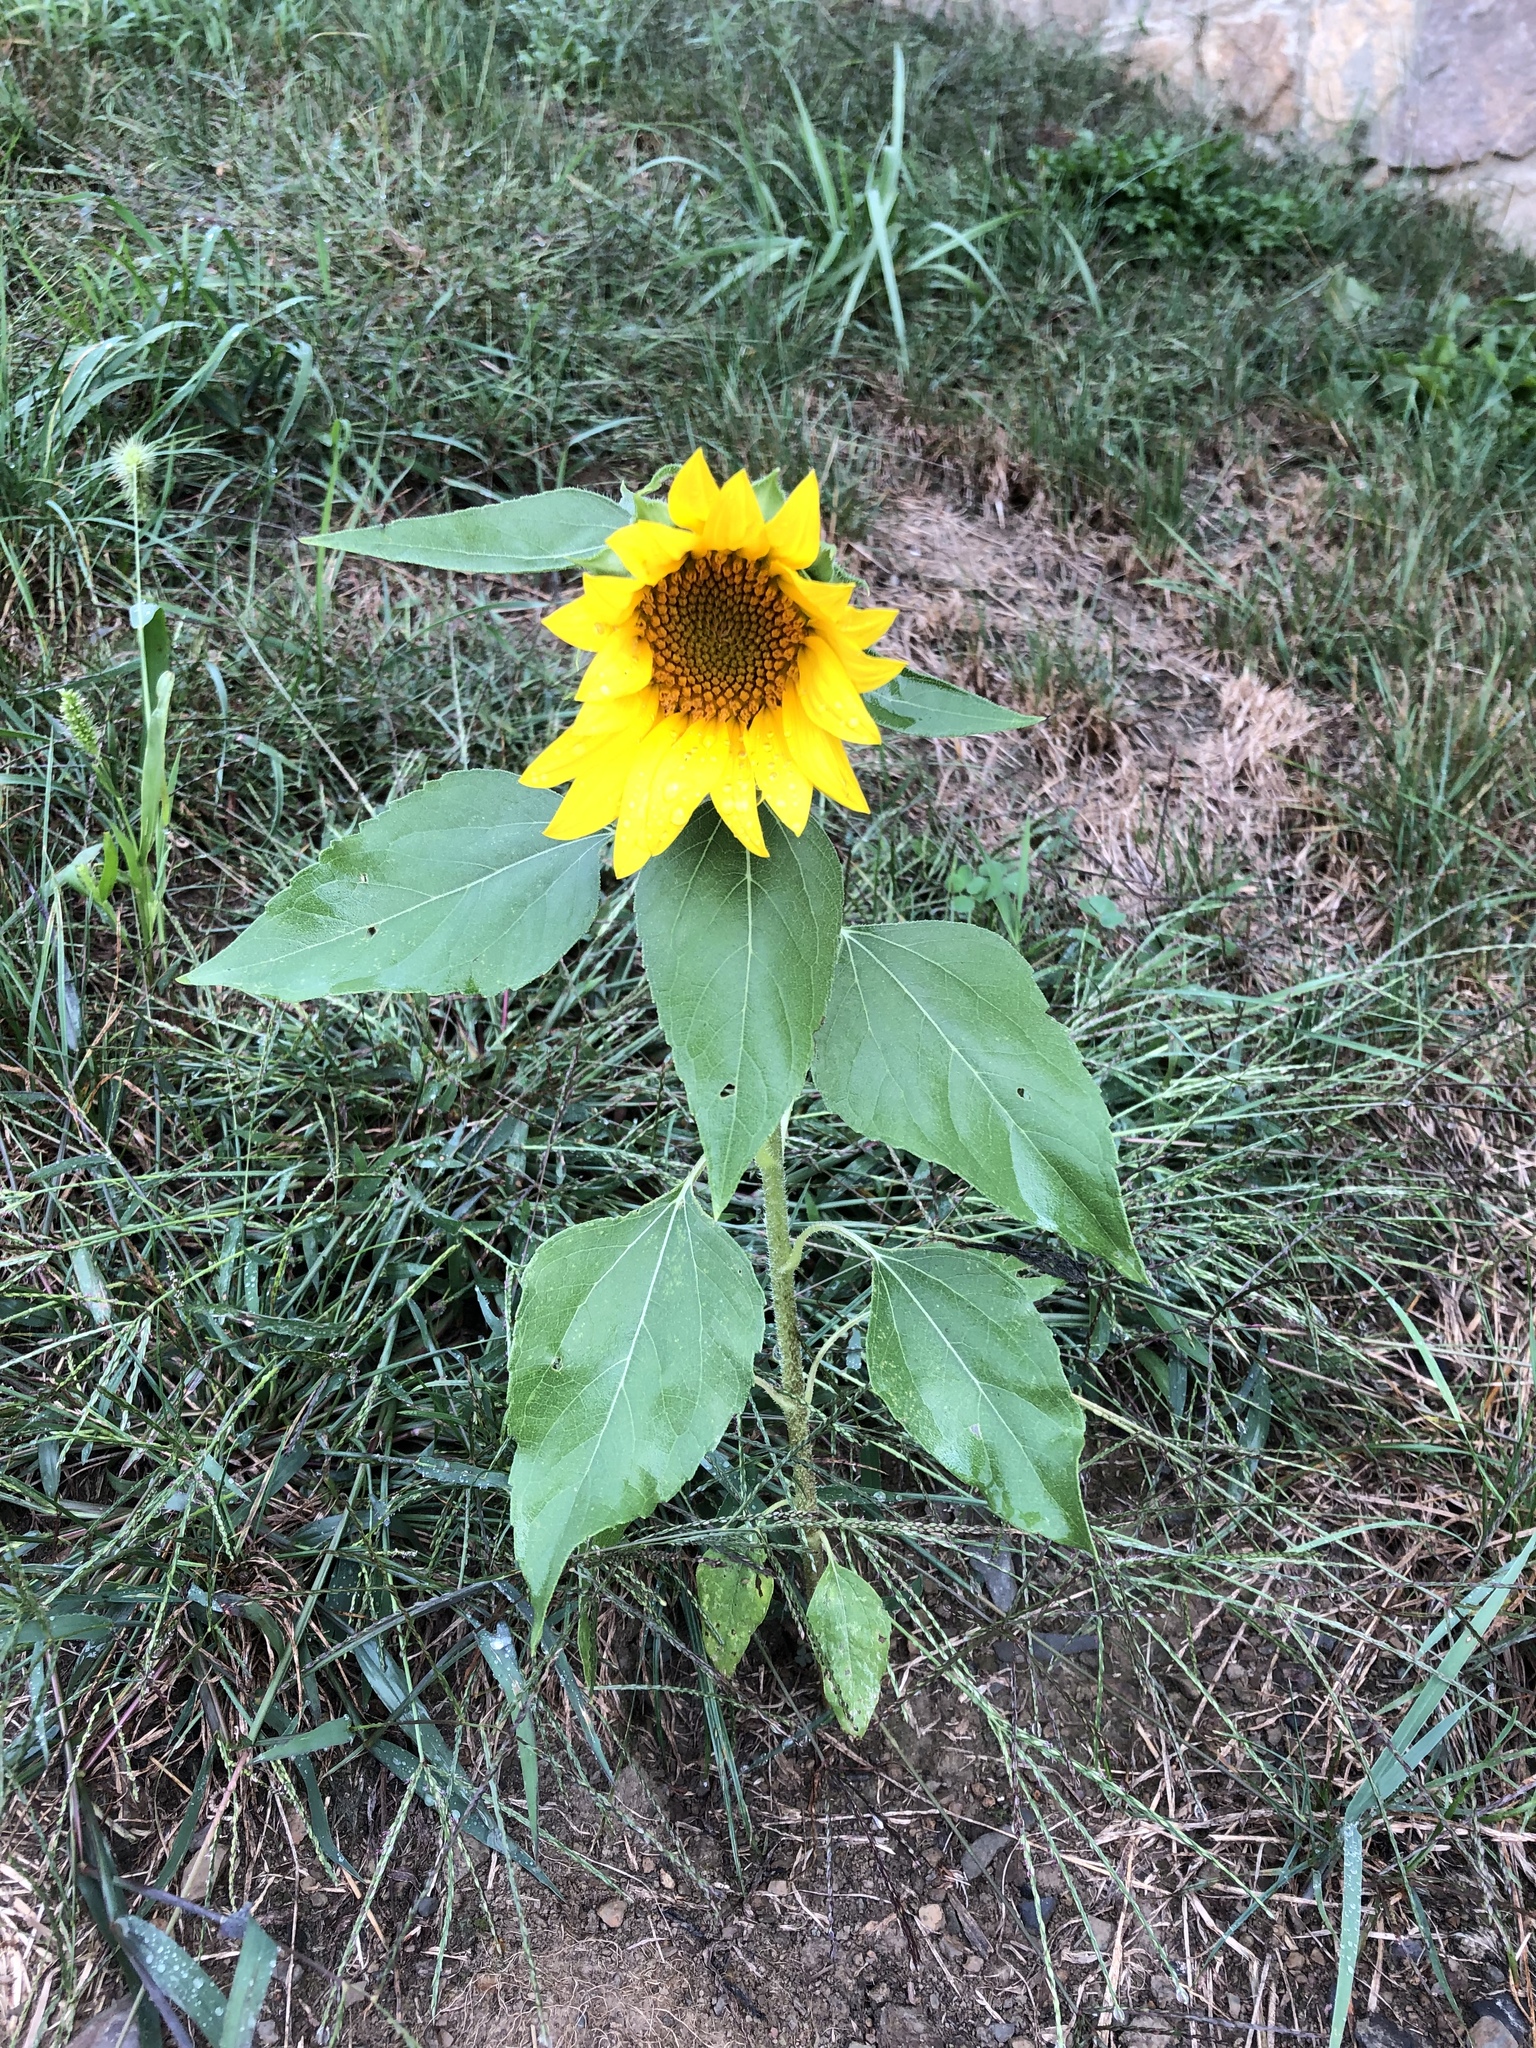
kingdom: Plantae
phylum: Tracheophyta
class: Magnoliopsida
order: Asterales
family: Asteraceae
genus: Helianthus
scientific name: Helianthus annuus
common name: Sunflower
